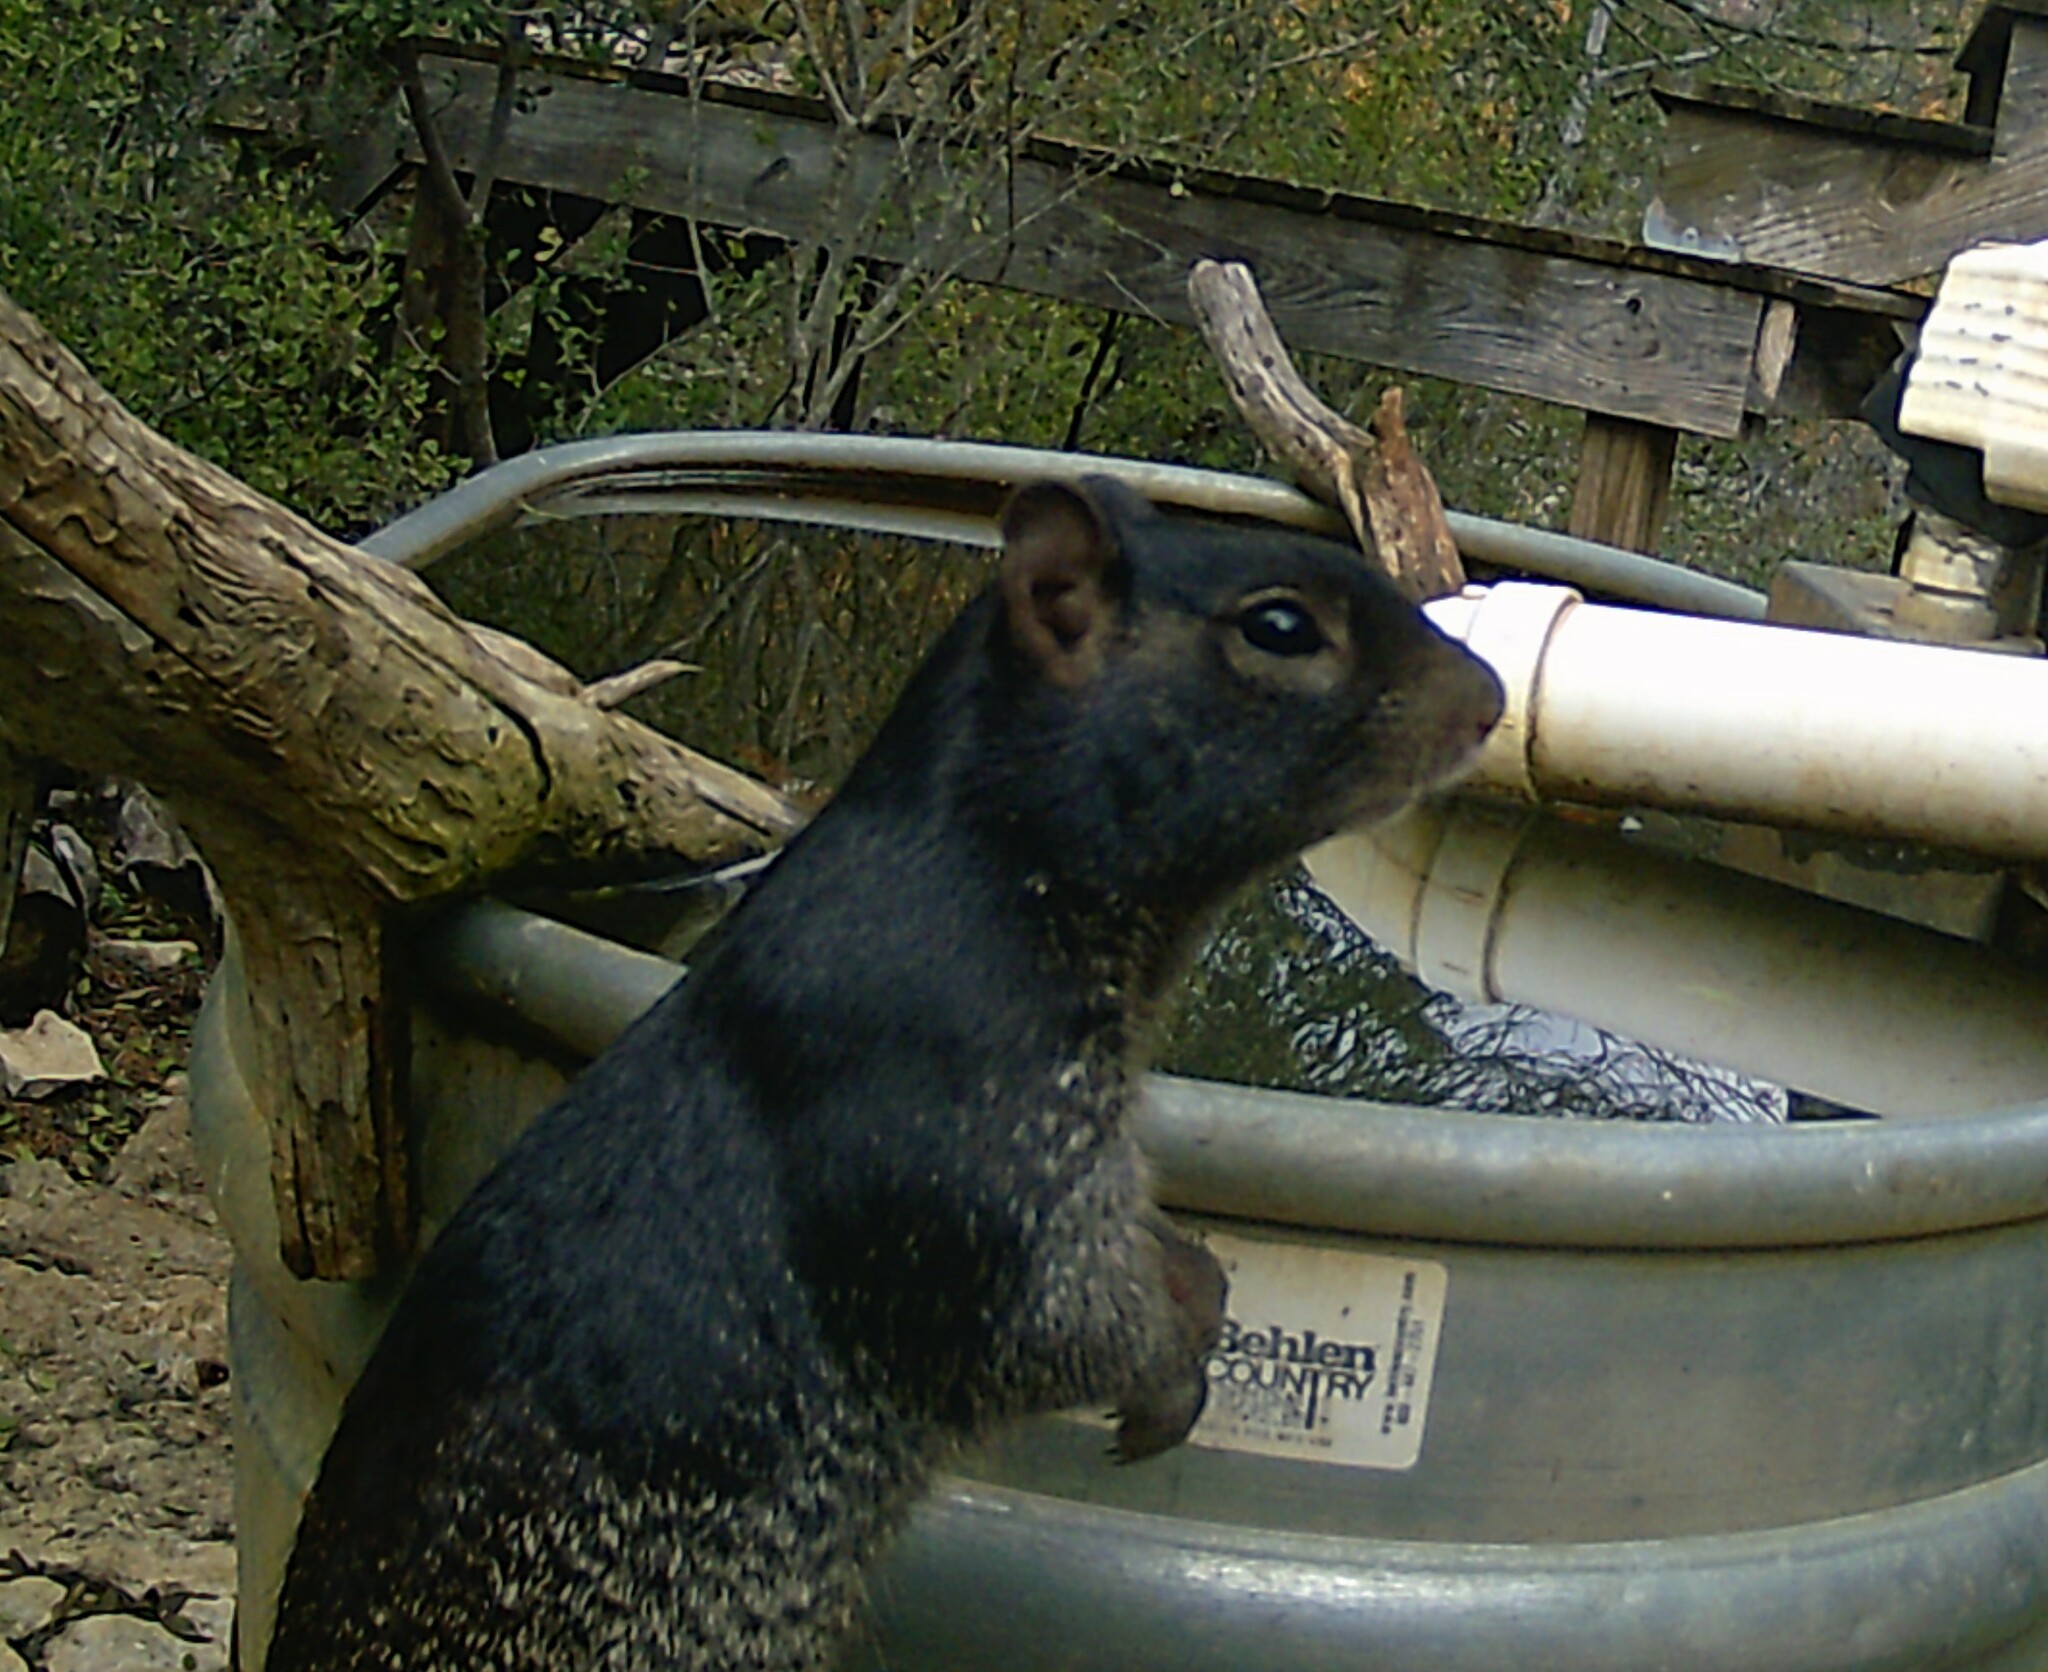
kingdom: Animalia
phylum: Chordata
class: Mammalia
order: Rodentia
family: Sciuridae
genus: Otospermophilus
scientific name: Otospermophilus variegatus
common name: Rock squirrel
